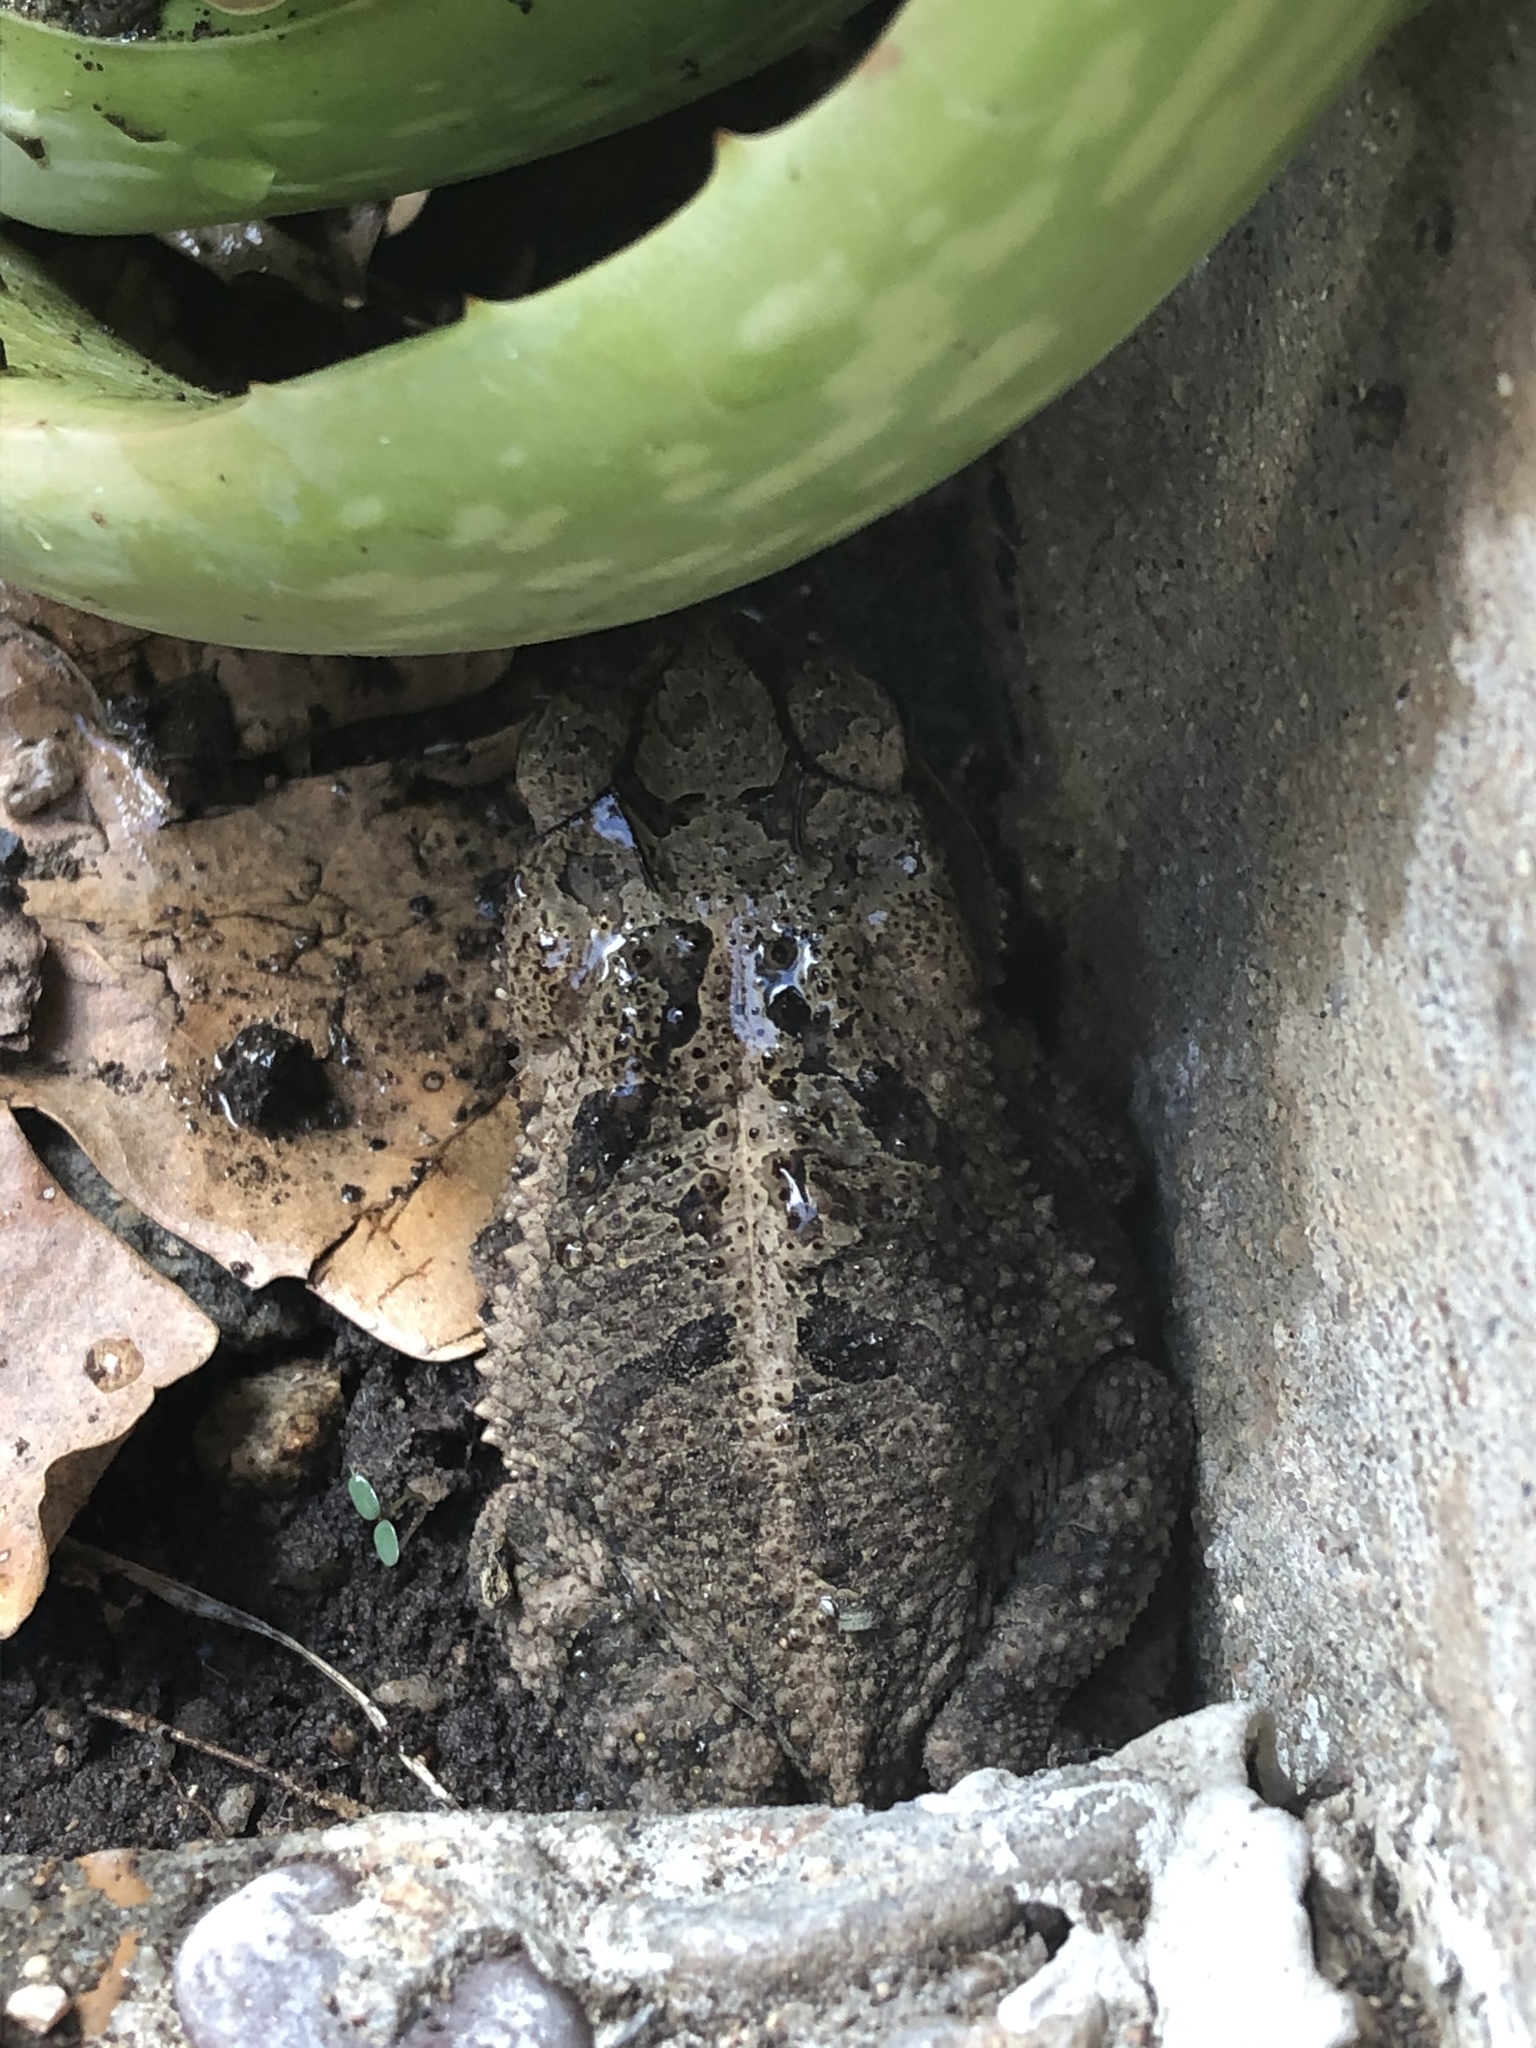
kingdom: Animalia
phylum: Chordata
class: Amphibia
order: Anura
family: Bufonidae
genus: Incilius
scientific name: Incilius nebulifer
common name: Gulf coast toad
